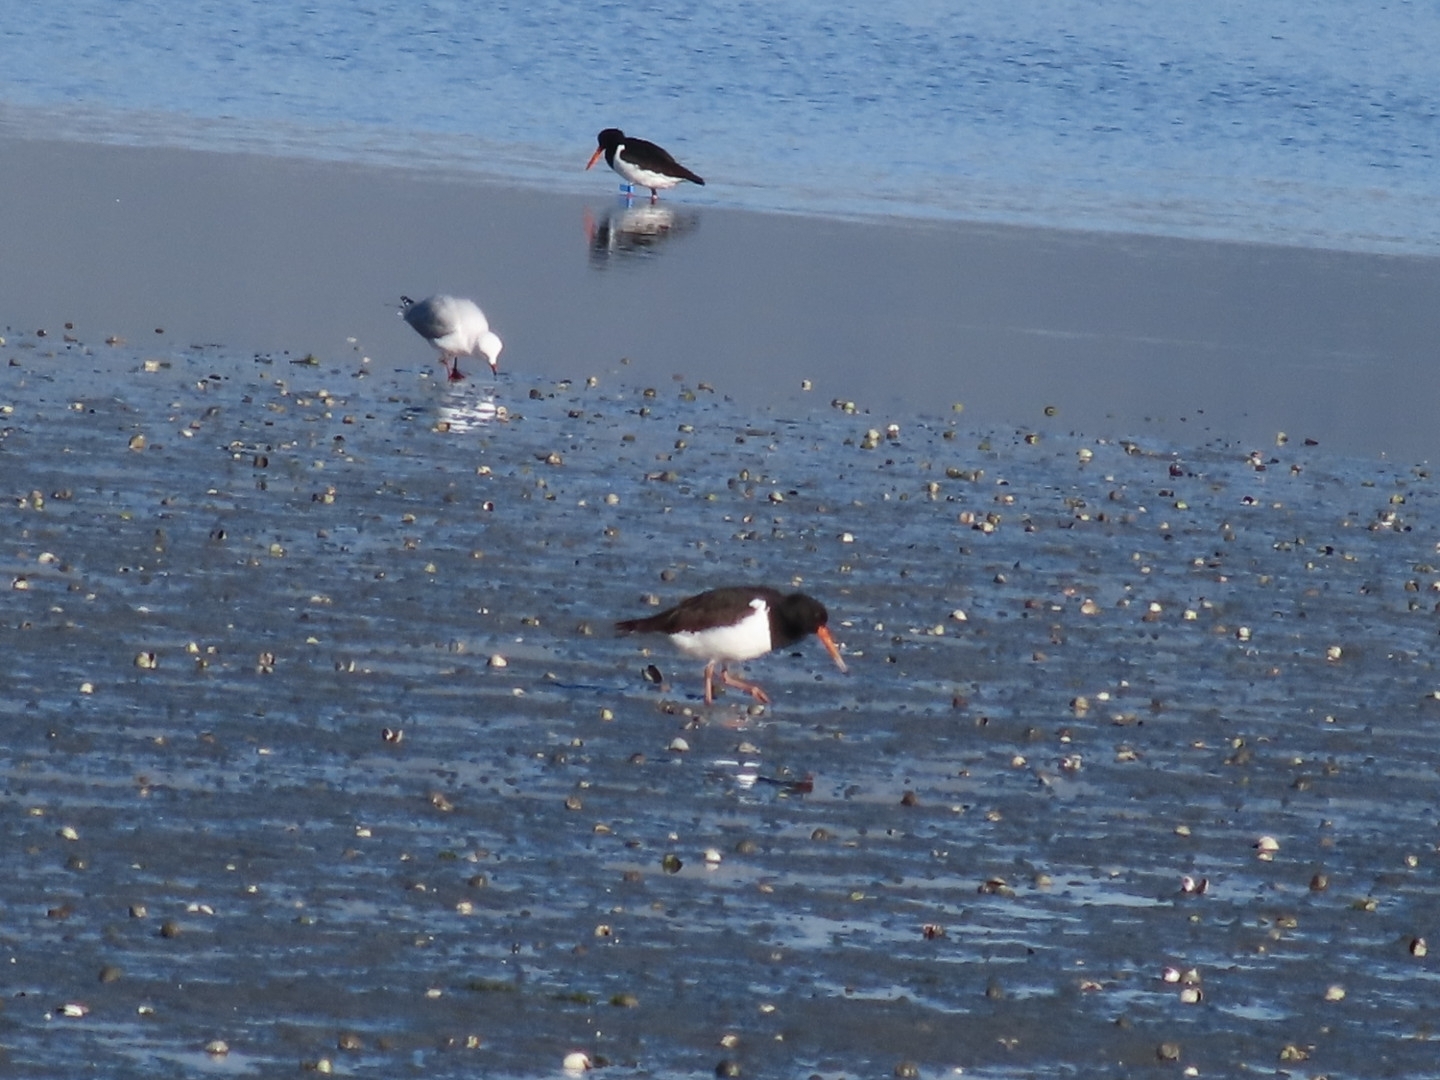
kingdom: Animalia
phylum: Chordata
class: Aves
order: Charadriiformes
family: Haematopodidae
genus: Haematopus
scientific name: Haematopus finschi
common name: South island oystercatcher
